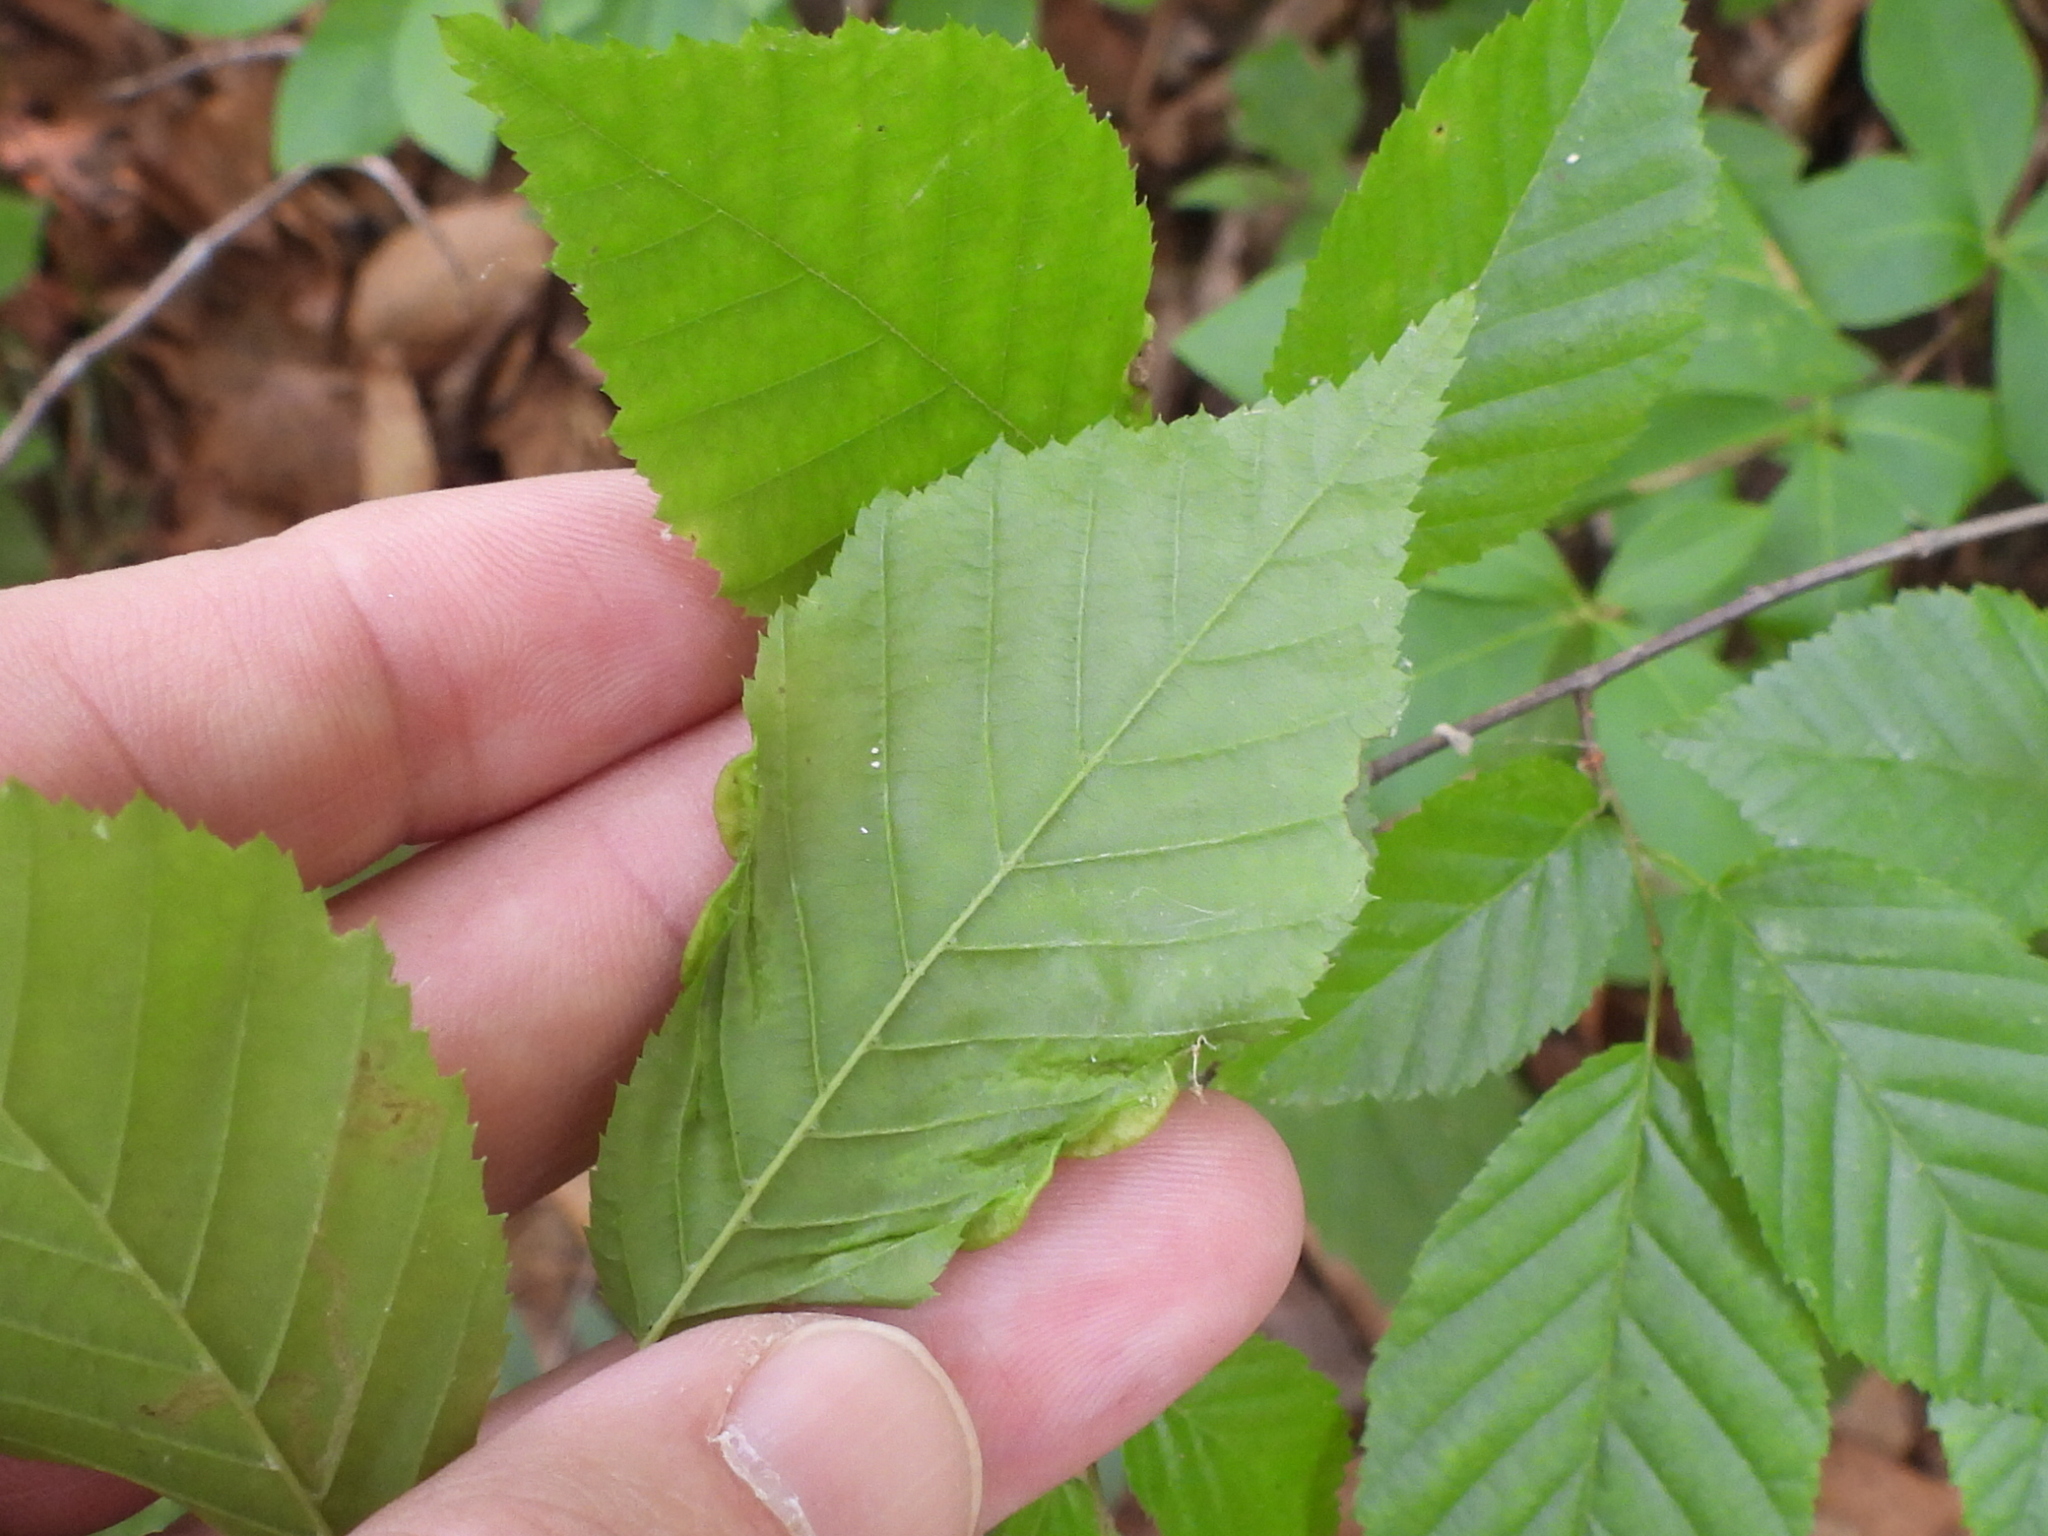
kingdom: Animalia
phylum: Arthropoda
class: Insecta
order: Diptera
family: Cecidomyiidae
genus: Dasineura
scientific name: Dasineura pudibunda
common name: Hornbeam leaf gall midge
